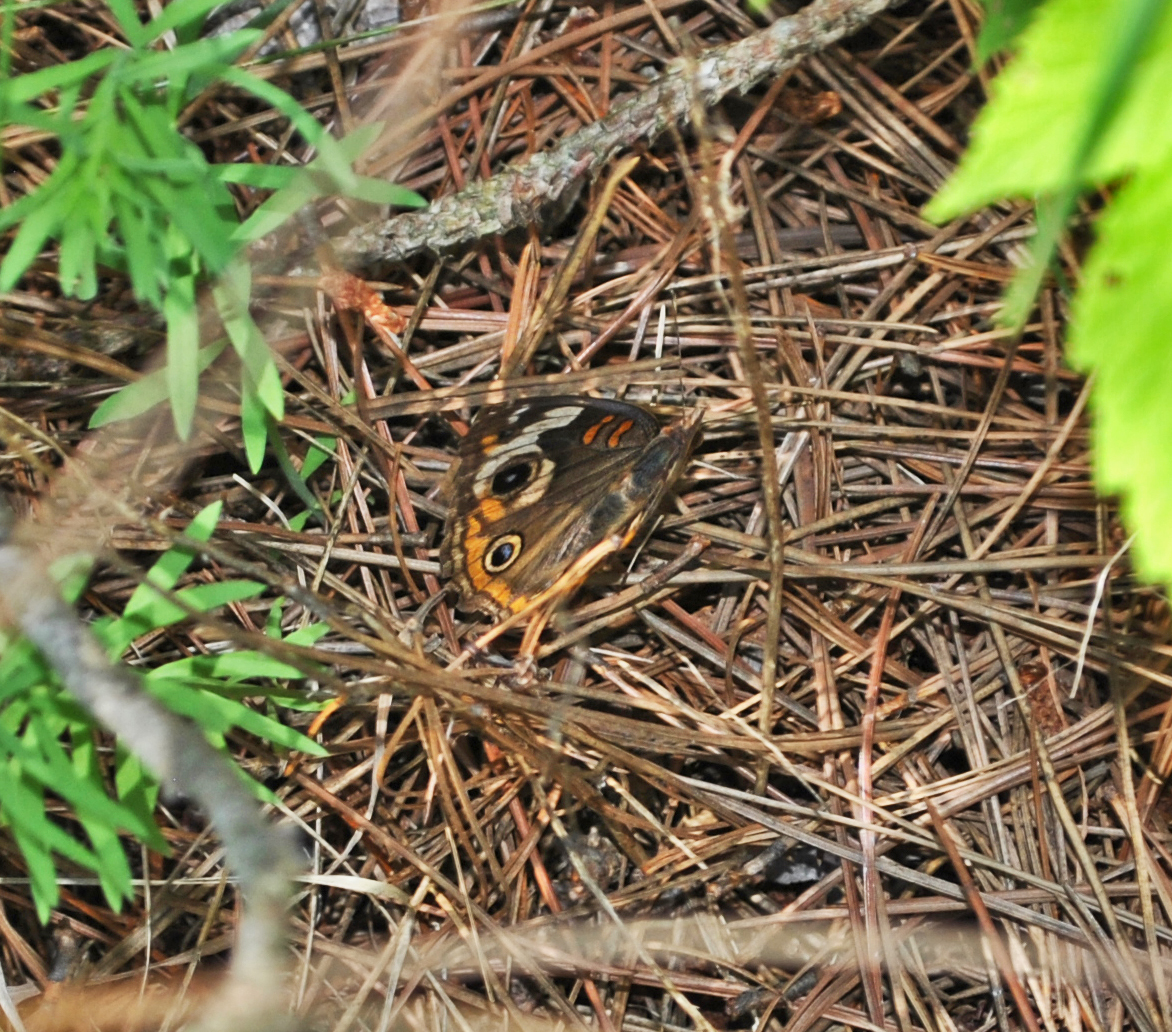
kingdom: Animalia
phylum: Arthropoda
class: Insecta
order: Lepidoptera
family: Nymphalidae
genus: Junonia
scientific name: Junonia coenia
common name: Common buckeye
